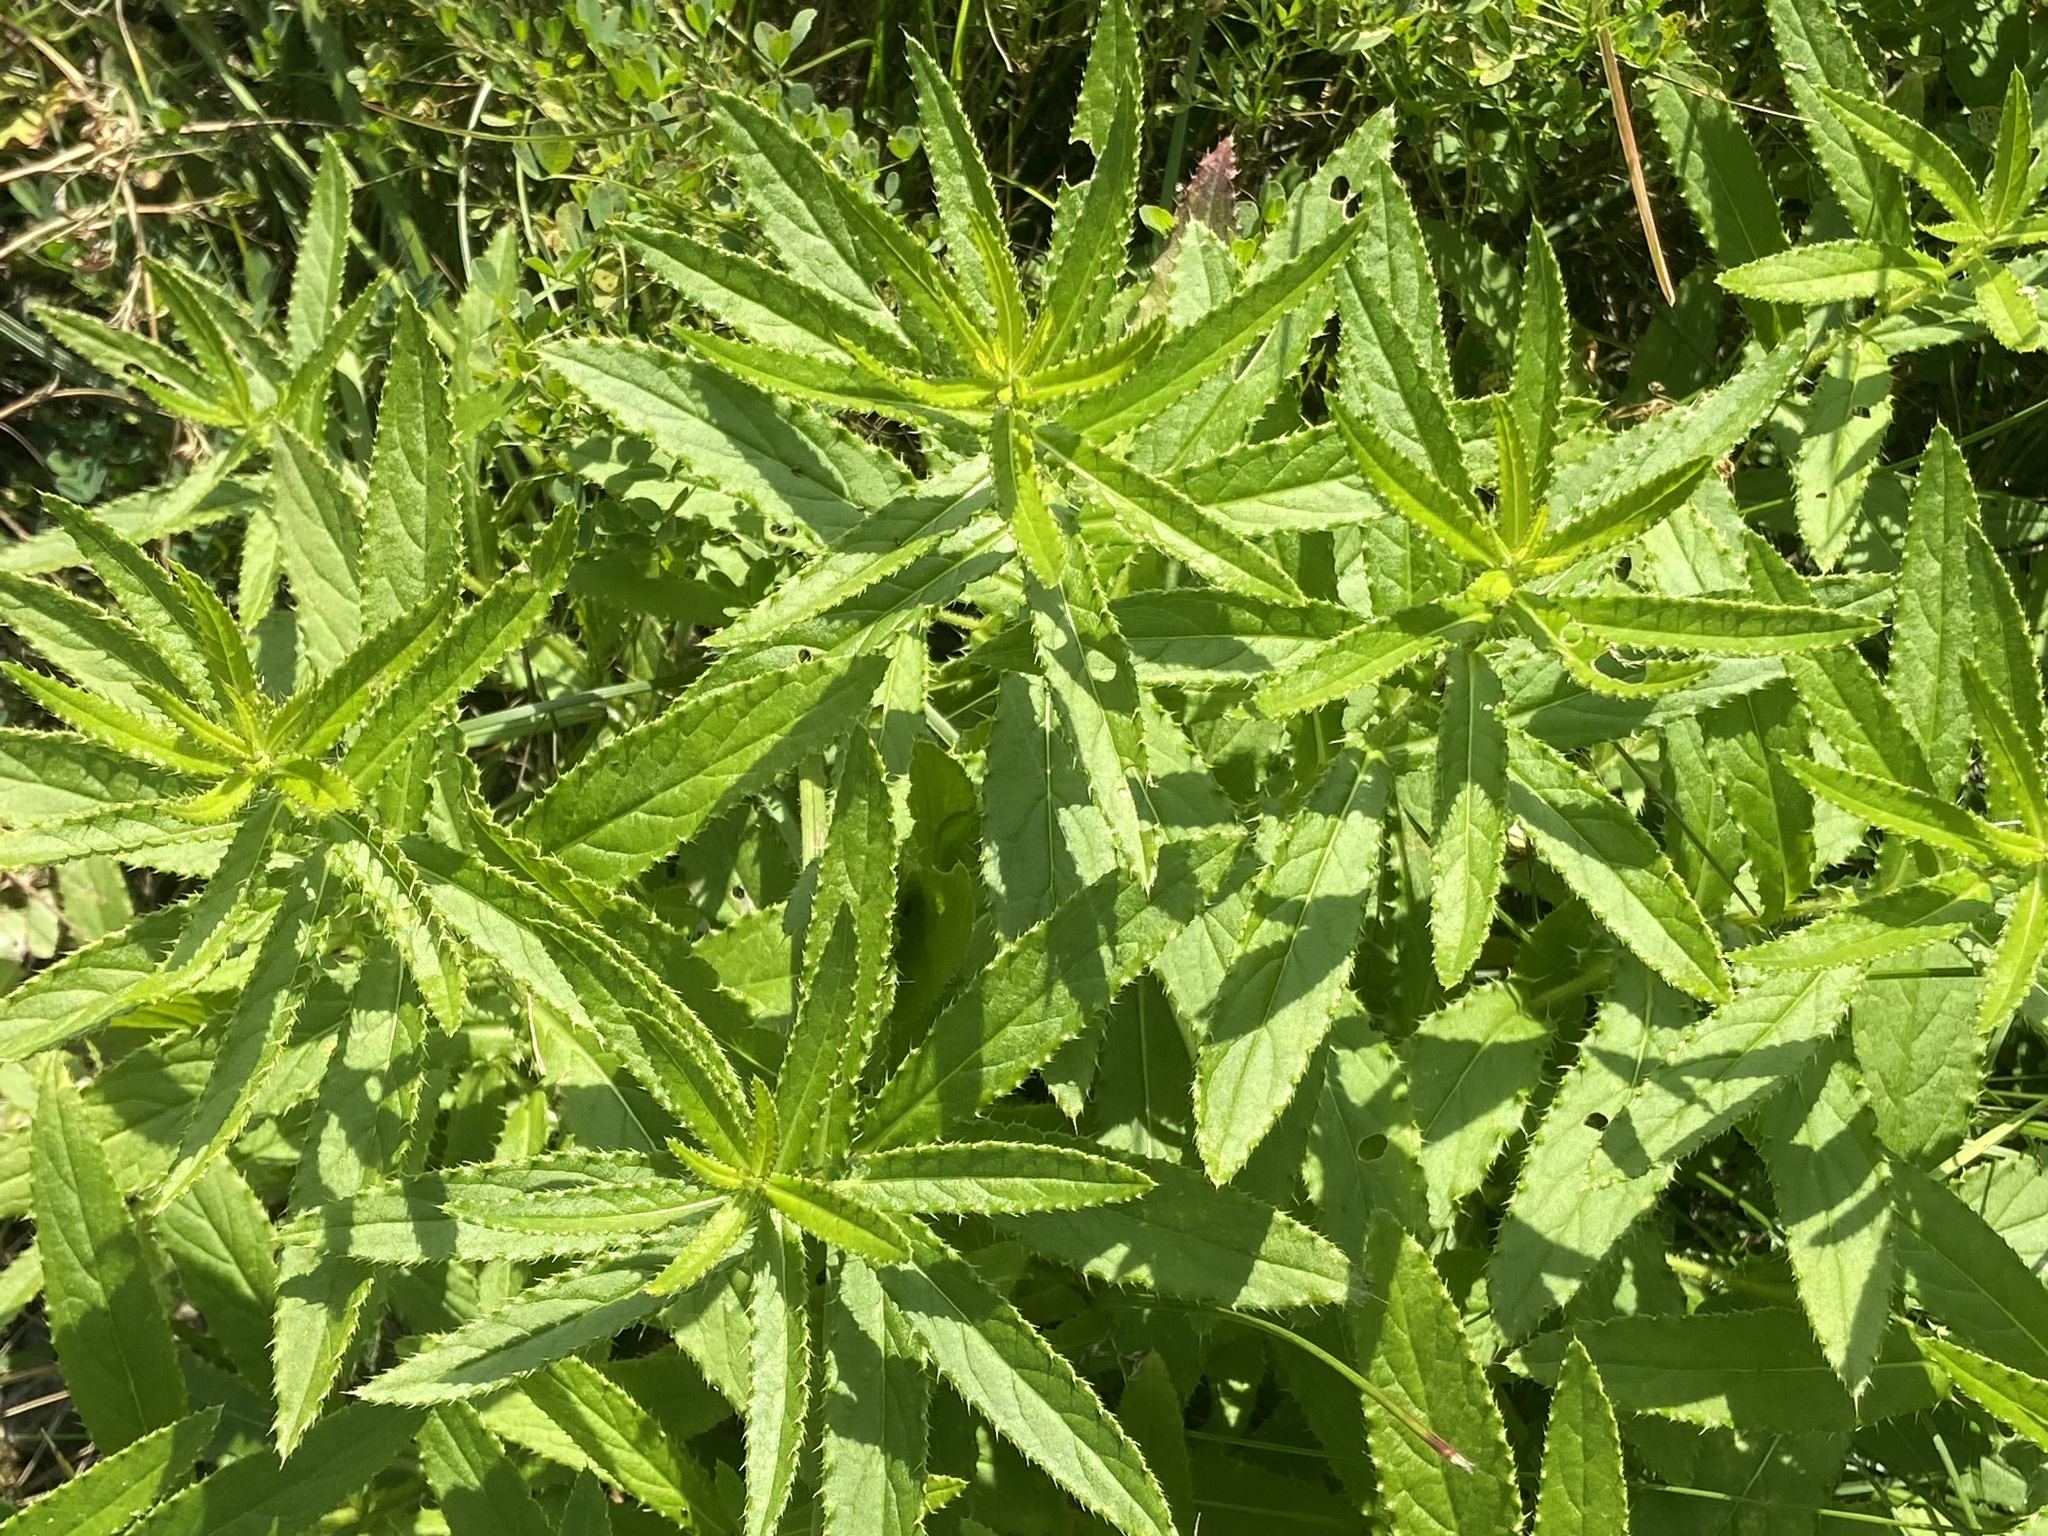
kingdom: Plantae
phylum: Tracheophyta
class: Magnoliopsida
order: Asterales
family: Asteraceae
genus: Cirsium
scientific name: Cirsium serratuloides
